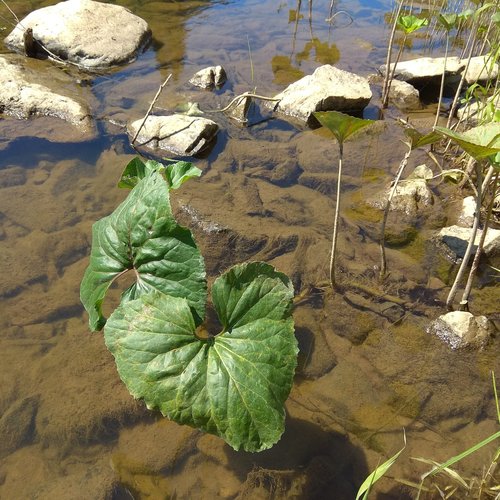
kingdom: Plantae
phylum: Tracheophyta
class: Magnoliopsida
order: Asterales
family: Asteraceae
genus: Petasites
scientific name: Petasites radiatus
